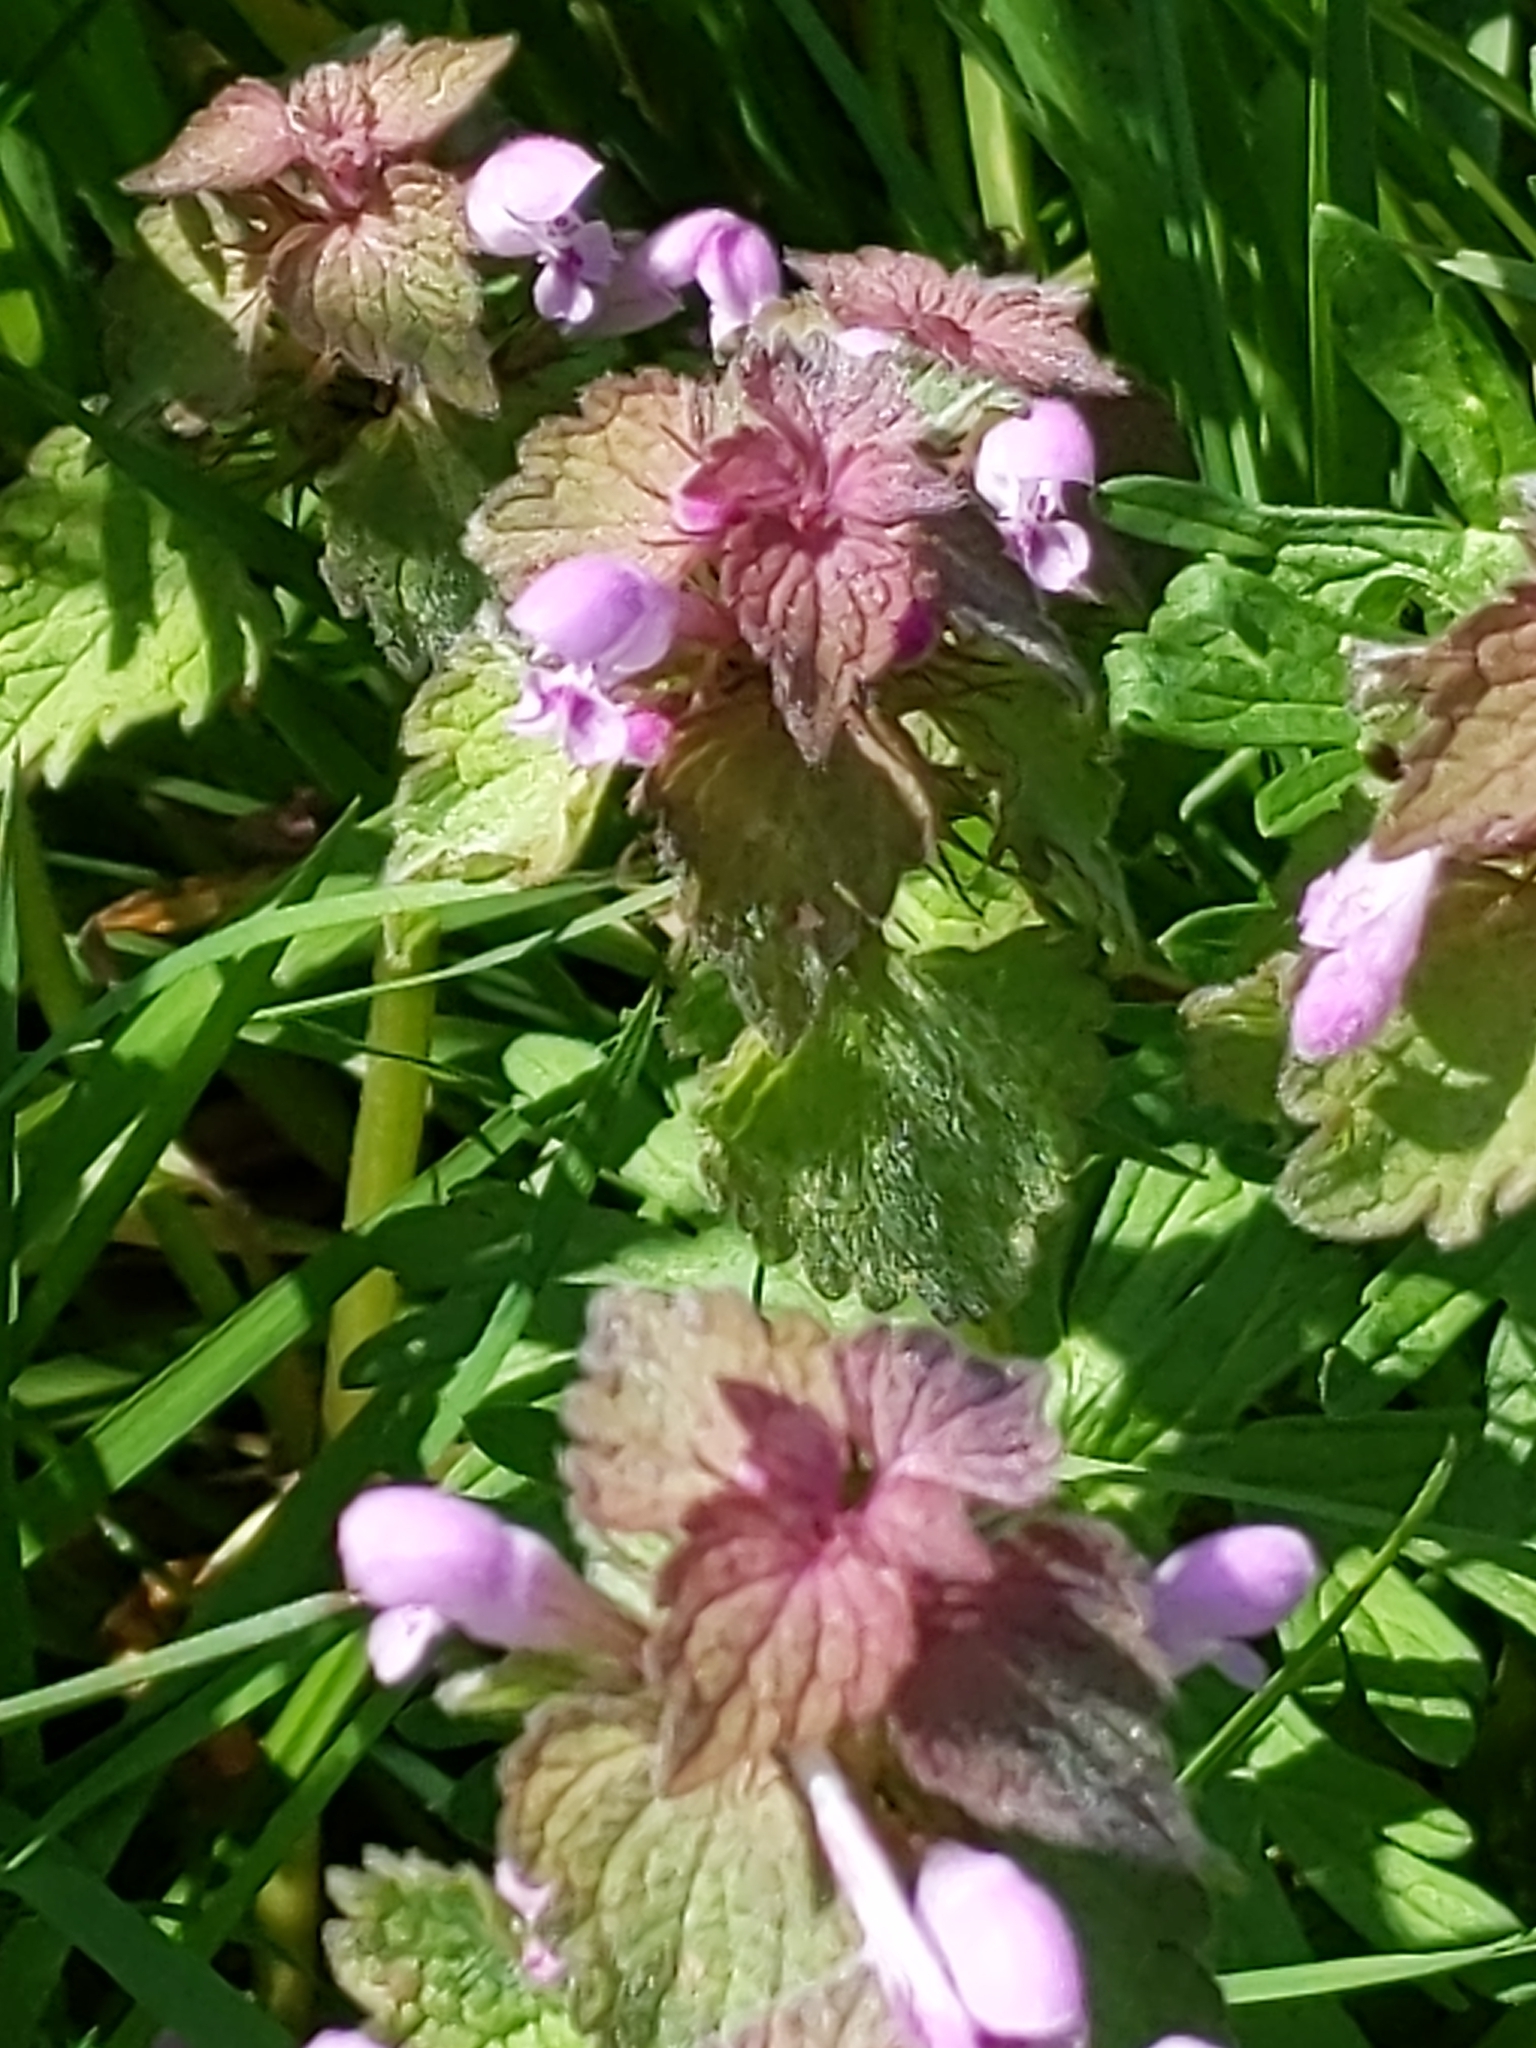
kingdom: Plantae
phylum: Tracheophyta
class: Magnoliopsida
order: Lamiales
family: Lamiaceae
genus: Lamium
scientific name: Lamium purpureum
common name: Red dead-nettle
